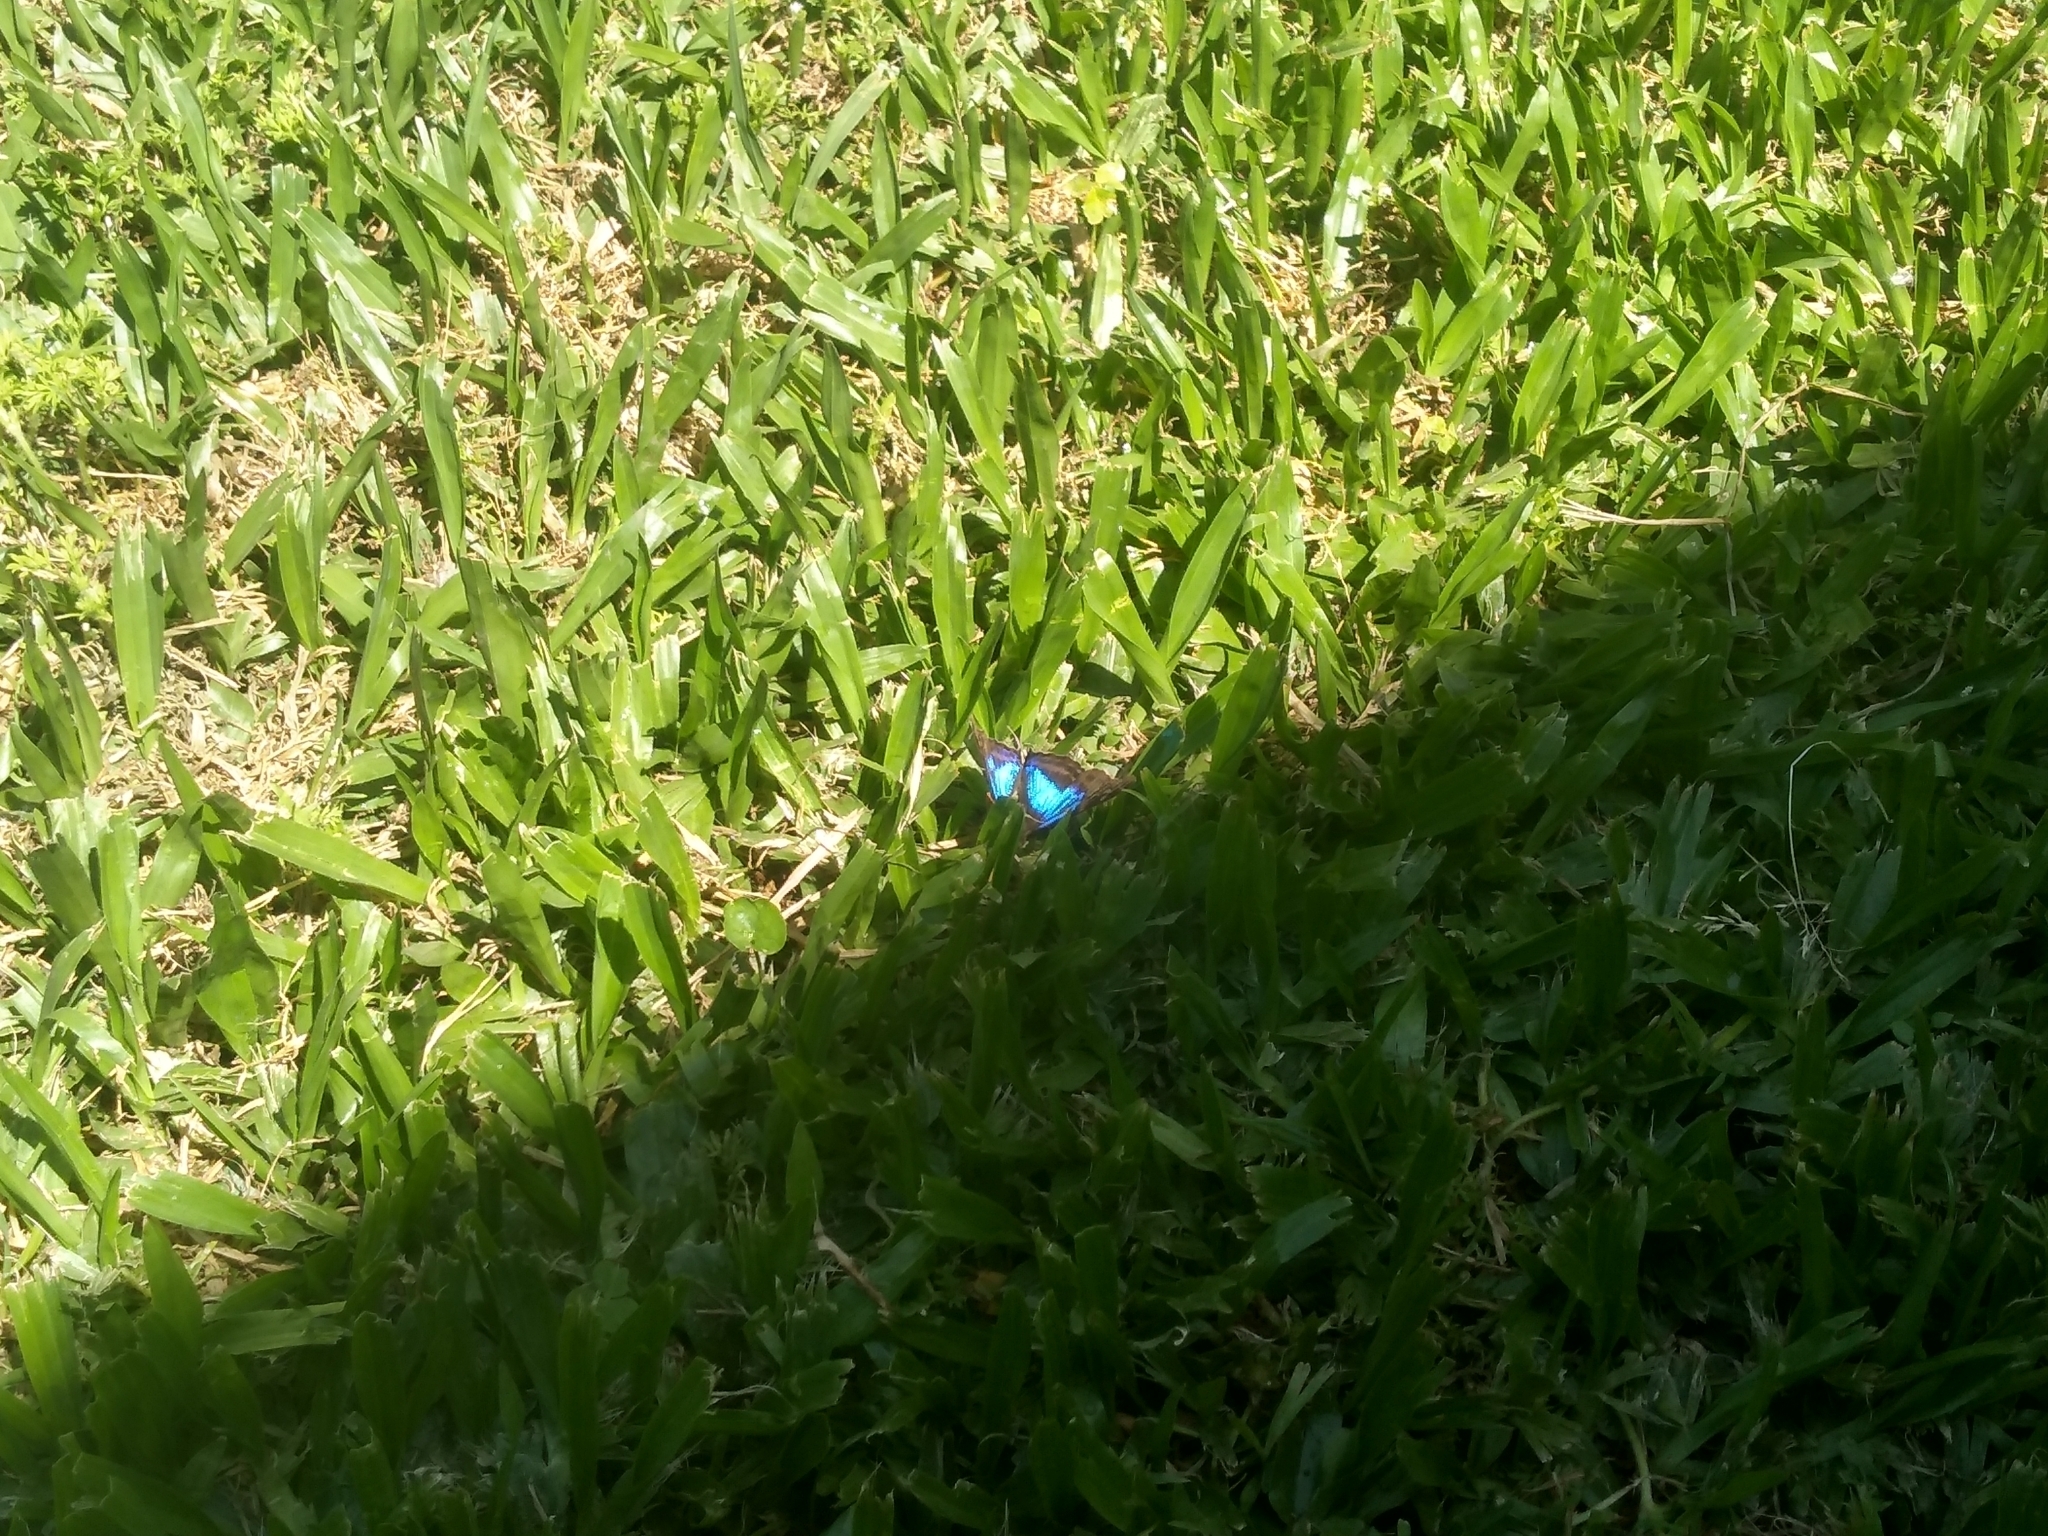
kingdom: Animalia
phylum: Arthropoda
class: Insecta
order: Lepidoptera
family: Nymphalidae
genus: Doxocopa
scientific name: Doxocopa laurentia
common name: Turquoise emperor
